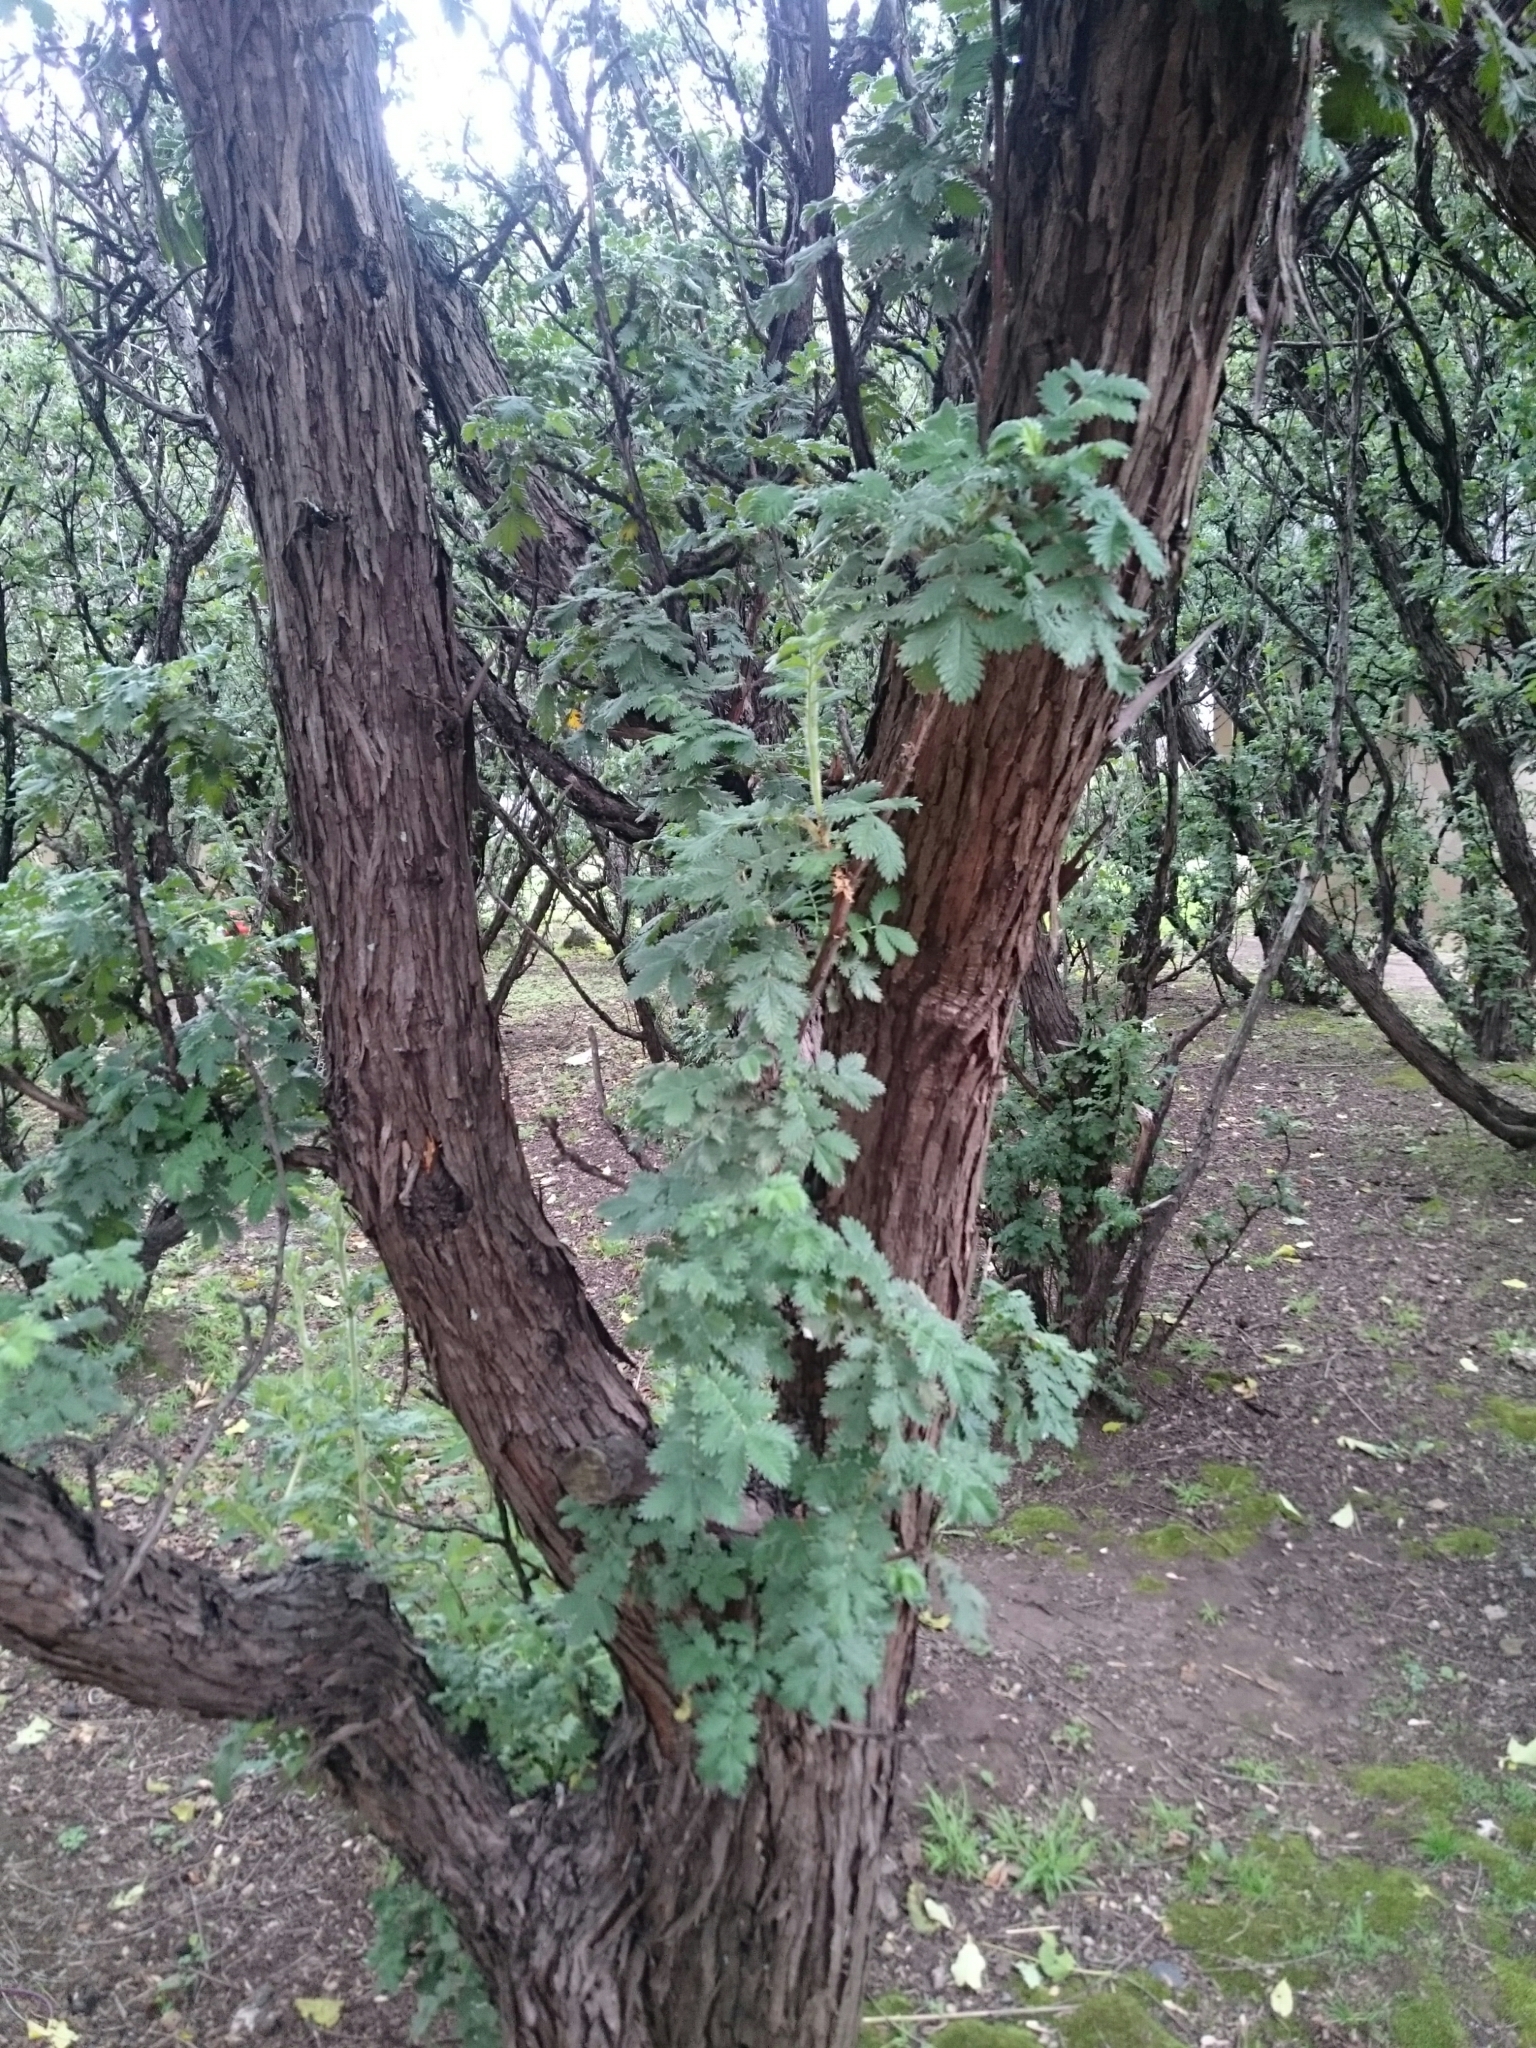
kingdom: Plantae
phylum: Tracheophyta
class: Magnoliopsida
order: Rosales
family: Rosaceae
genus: Leucosidea
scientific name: Leucosidea sericea
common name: Oldwood
